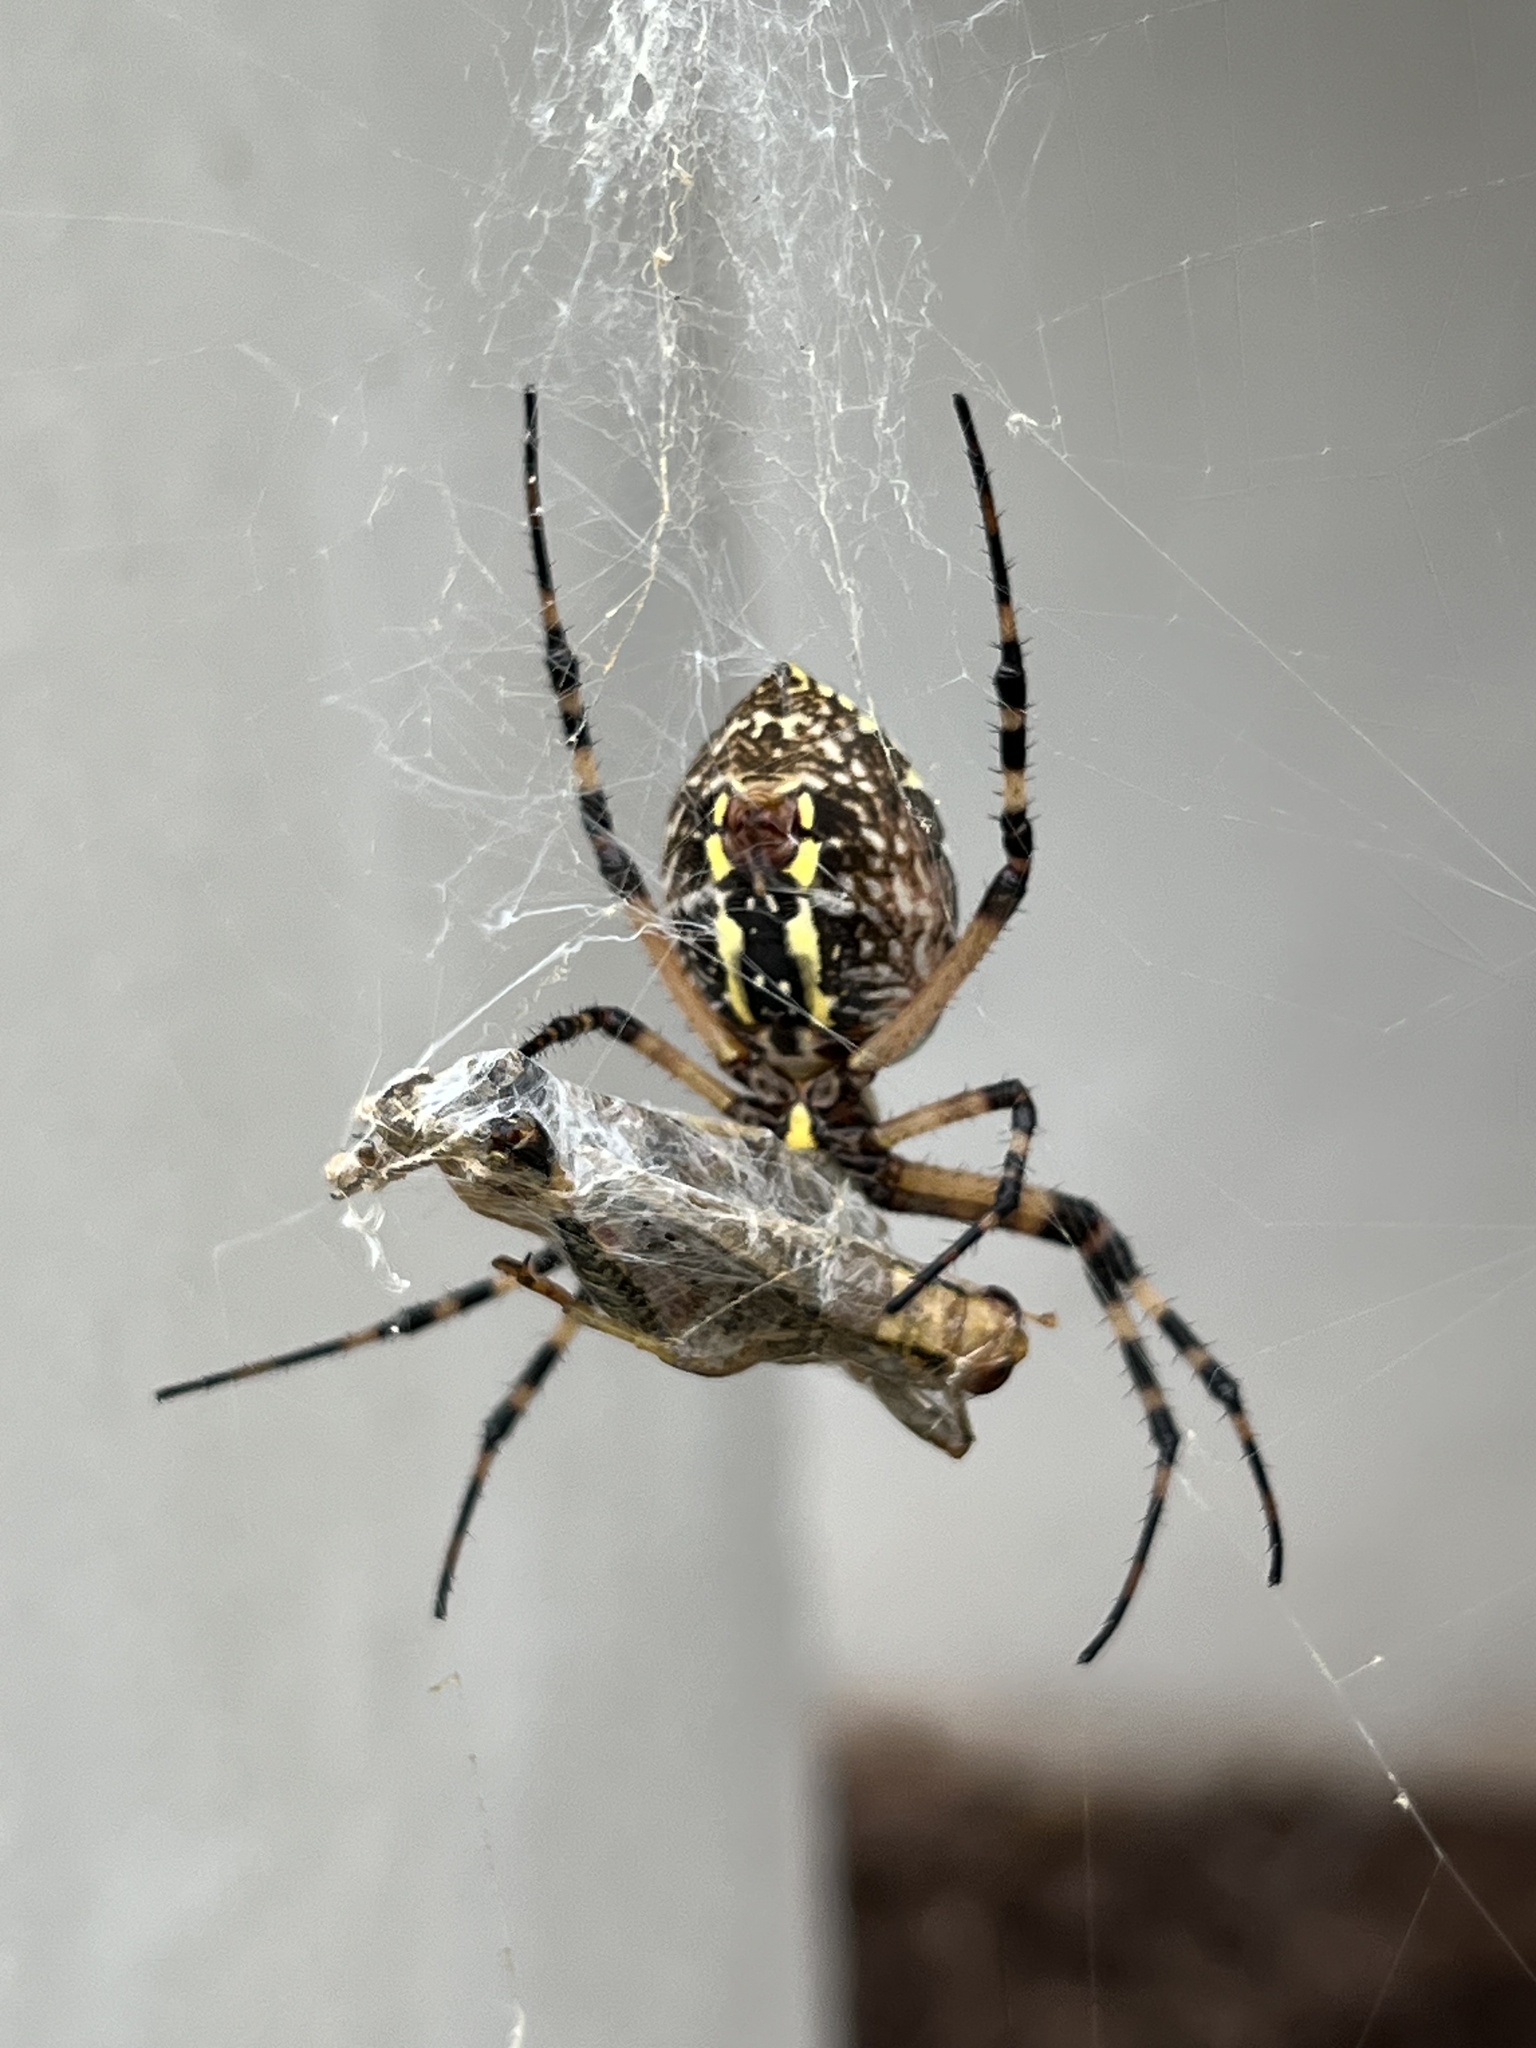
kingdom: Animalia
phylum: Arthropoda
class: Arachnida
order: Araneae
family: Araneidae
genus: Argiope
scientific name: Argiope aurantia
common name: Orb weavers
